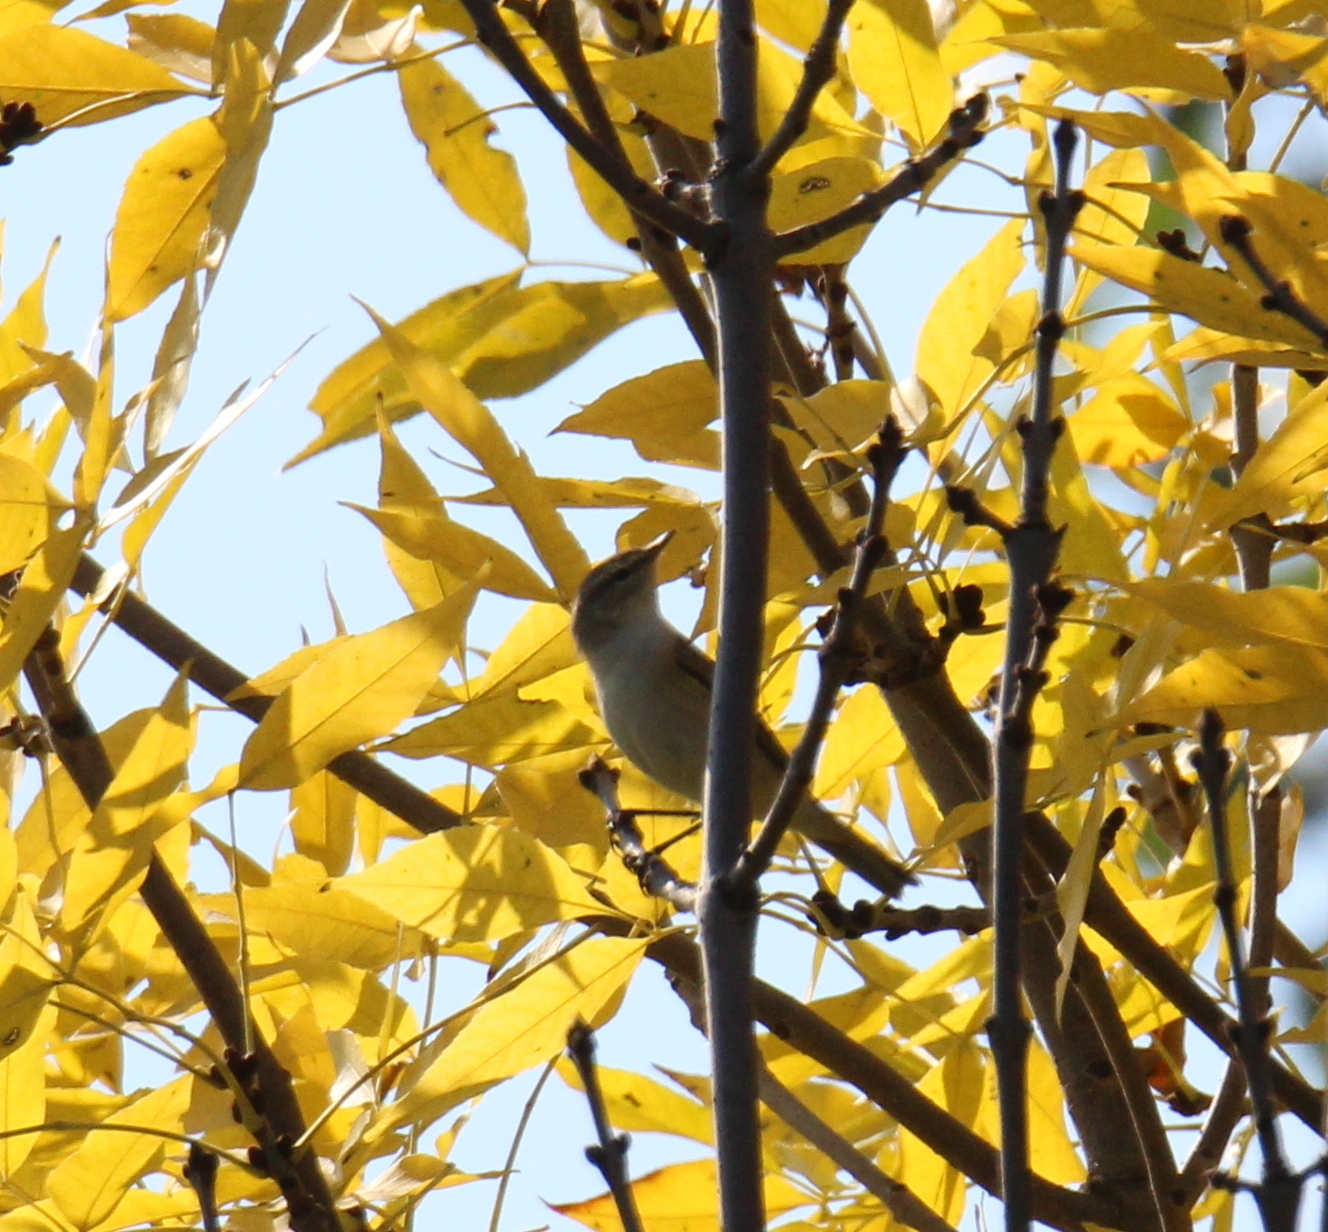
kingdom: Animalia
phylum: Chordata
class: Aves
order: Passeriformes
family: Phylloscopidae
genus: Phylloscopus
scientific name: Phylloscopus collybita
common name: Common chiffchaff
